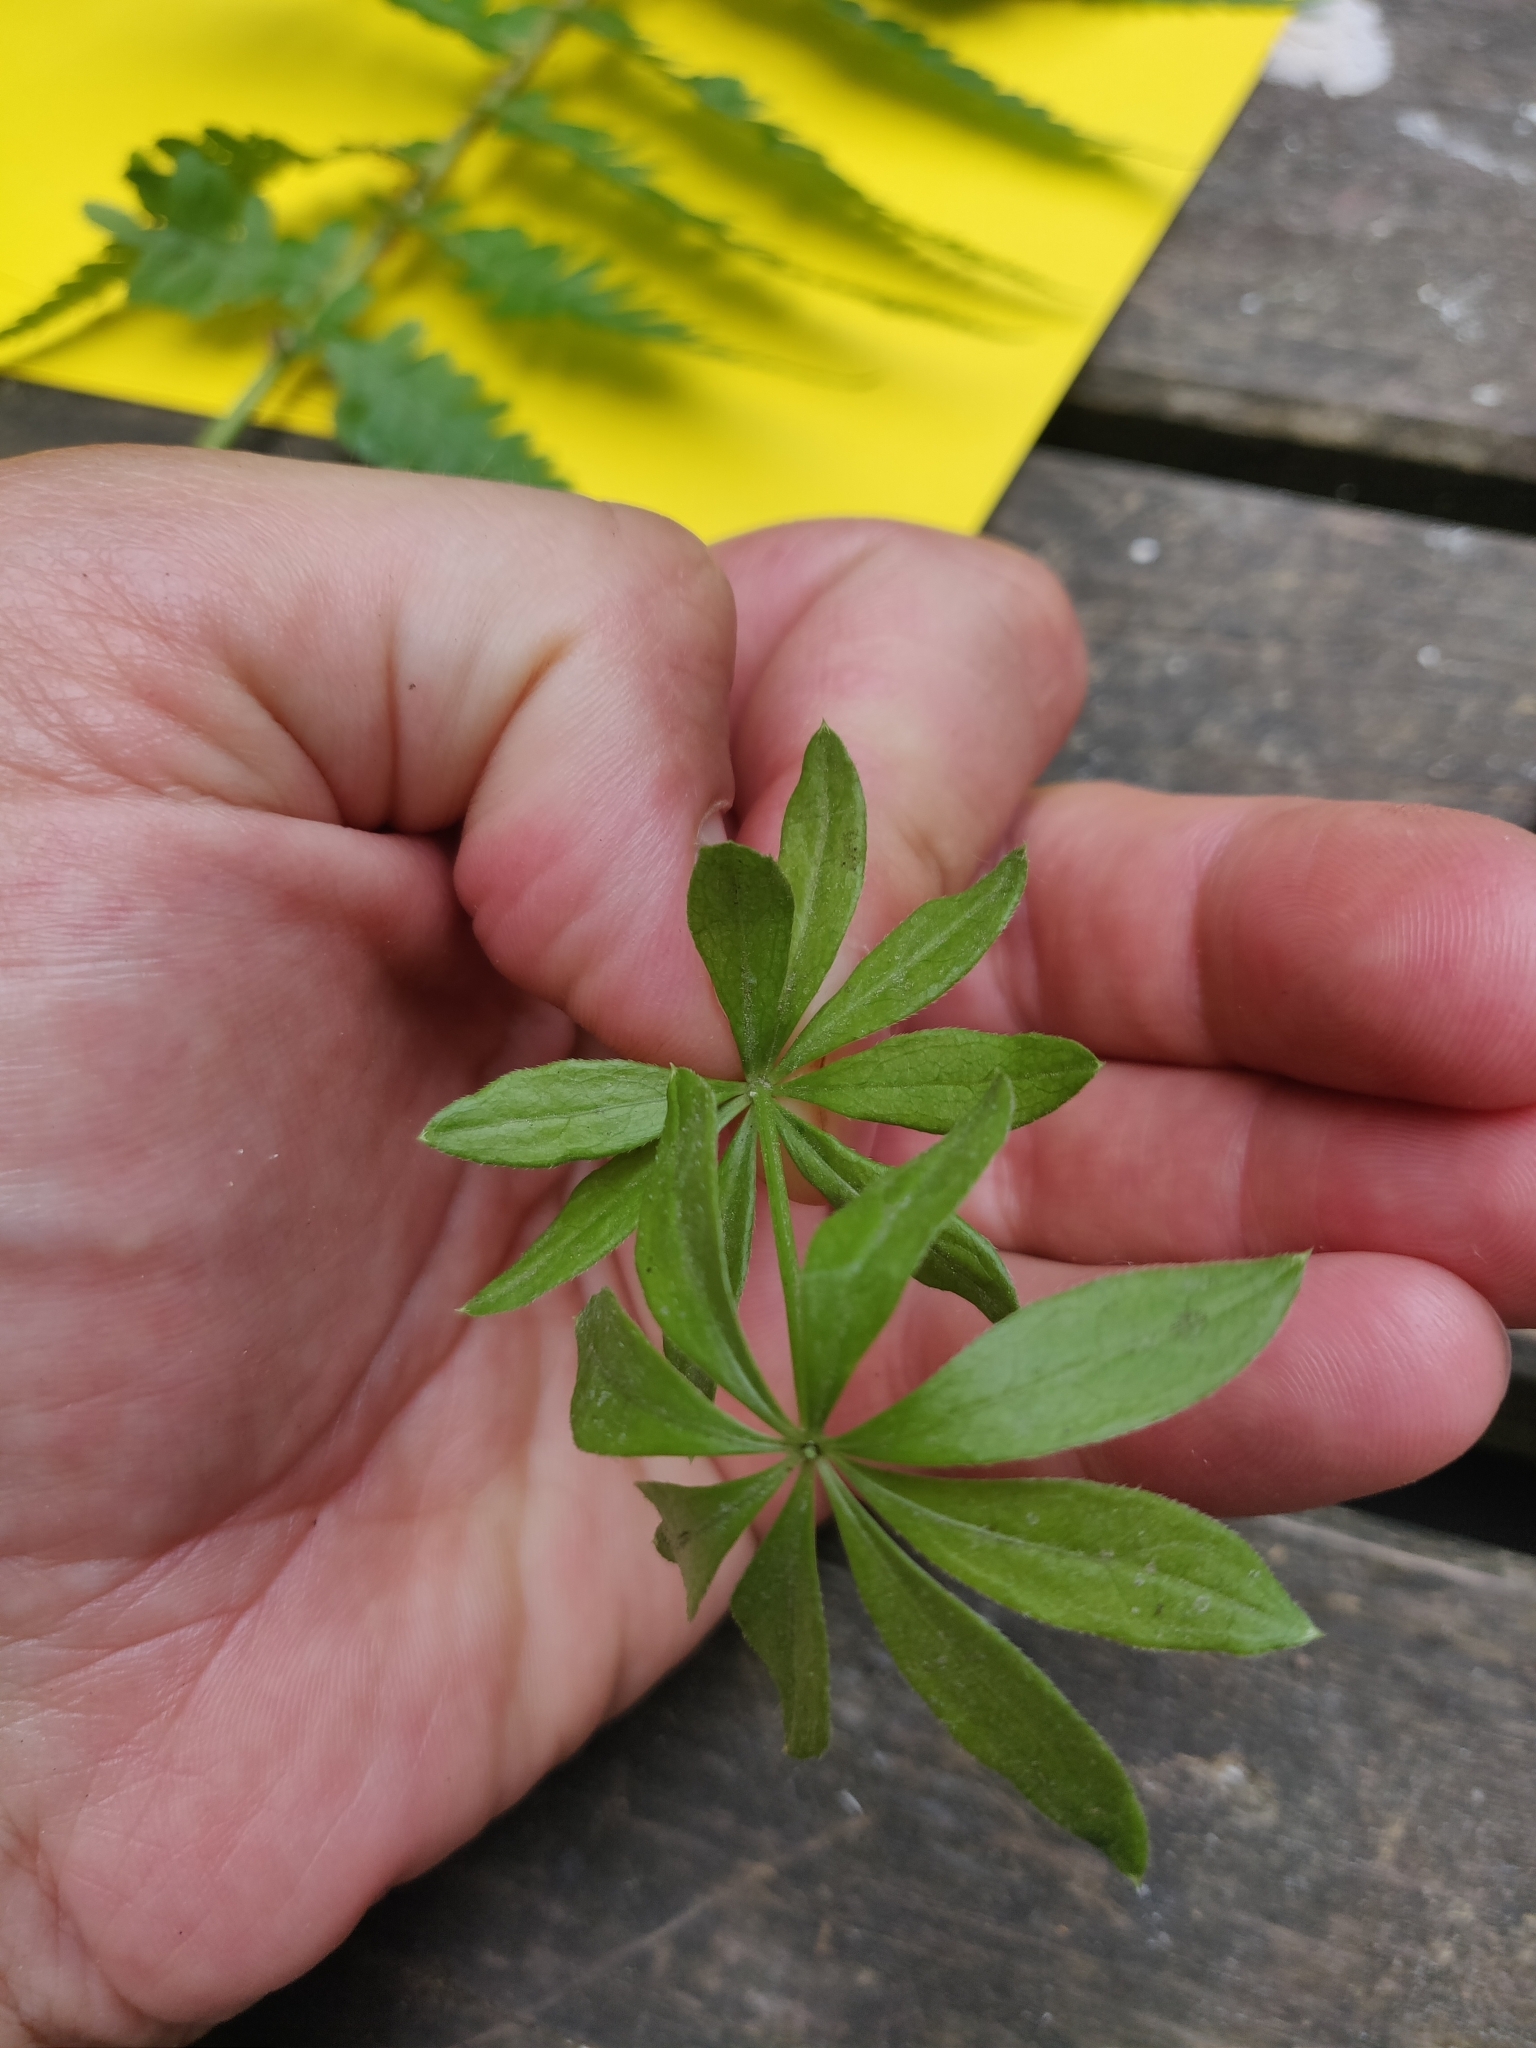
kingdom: Plantae
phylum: Tracheophyta
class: Magnoliopsida
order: Gentianales
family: Rubiaceae
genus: Galium
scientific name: Galium odoratum
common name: Sweet woodruff
